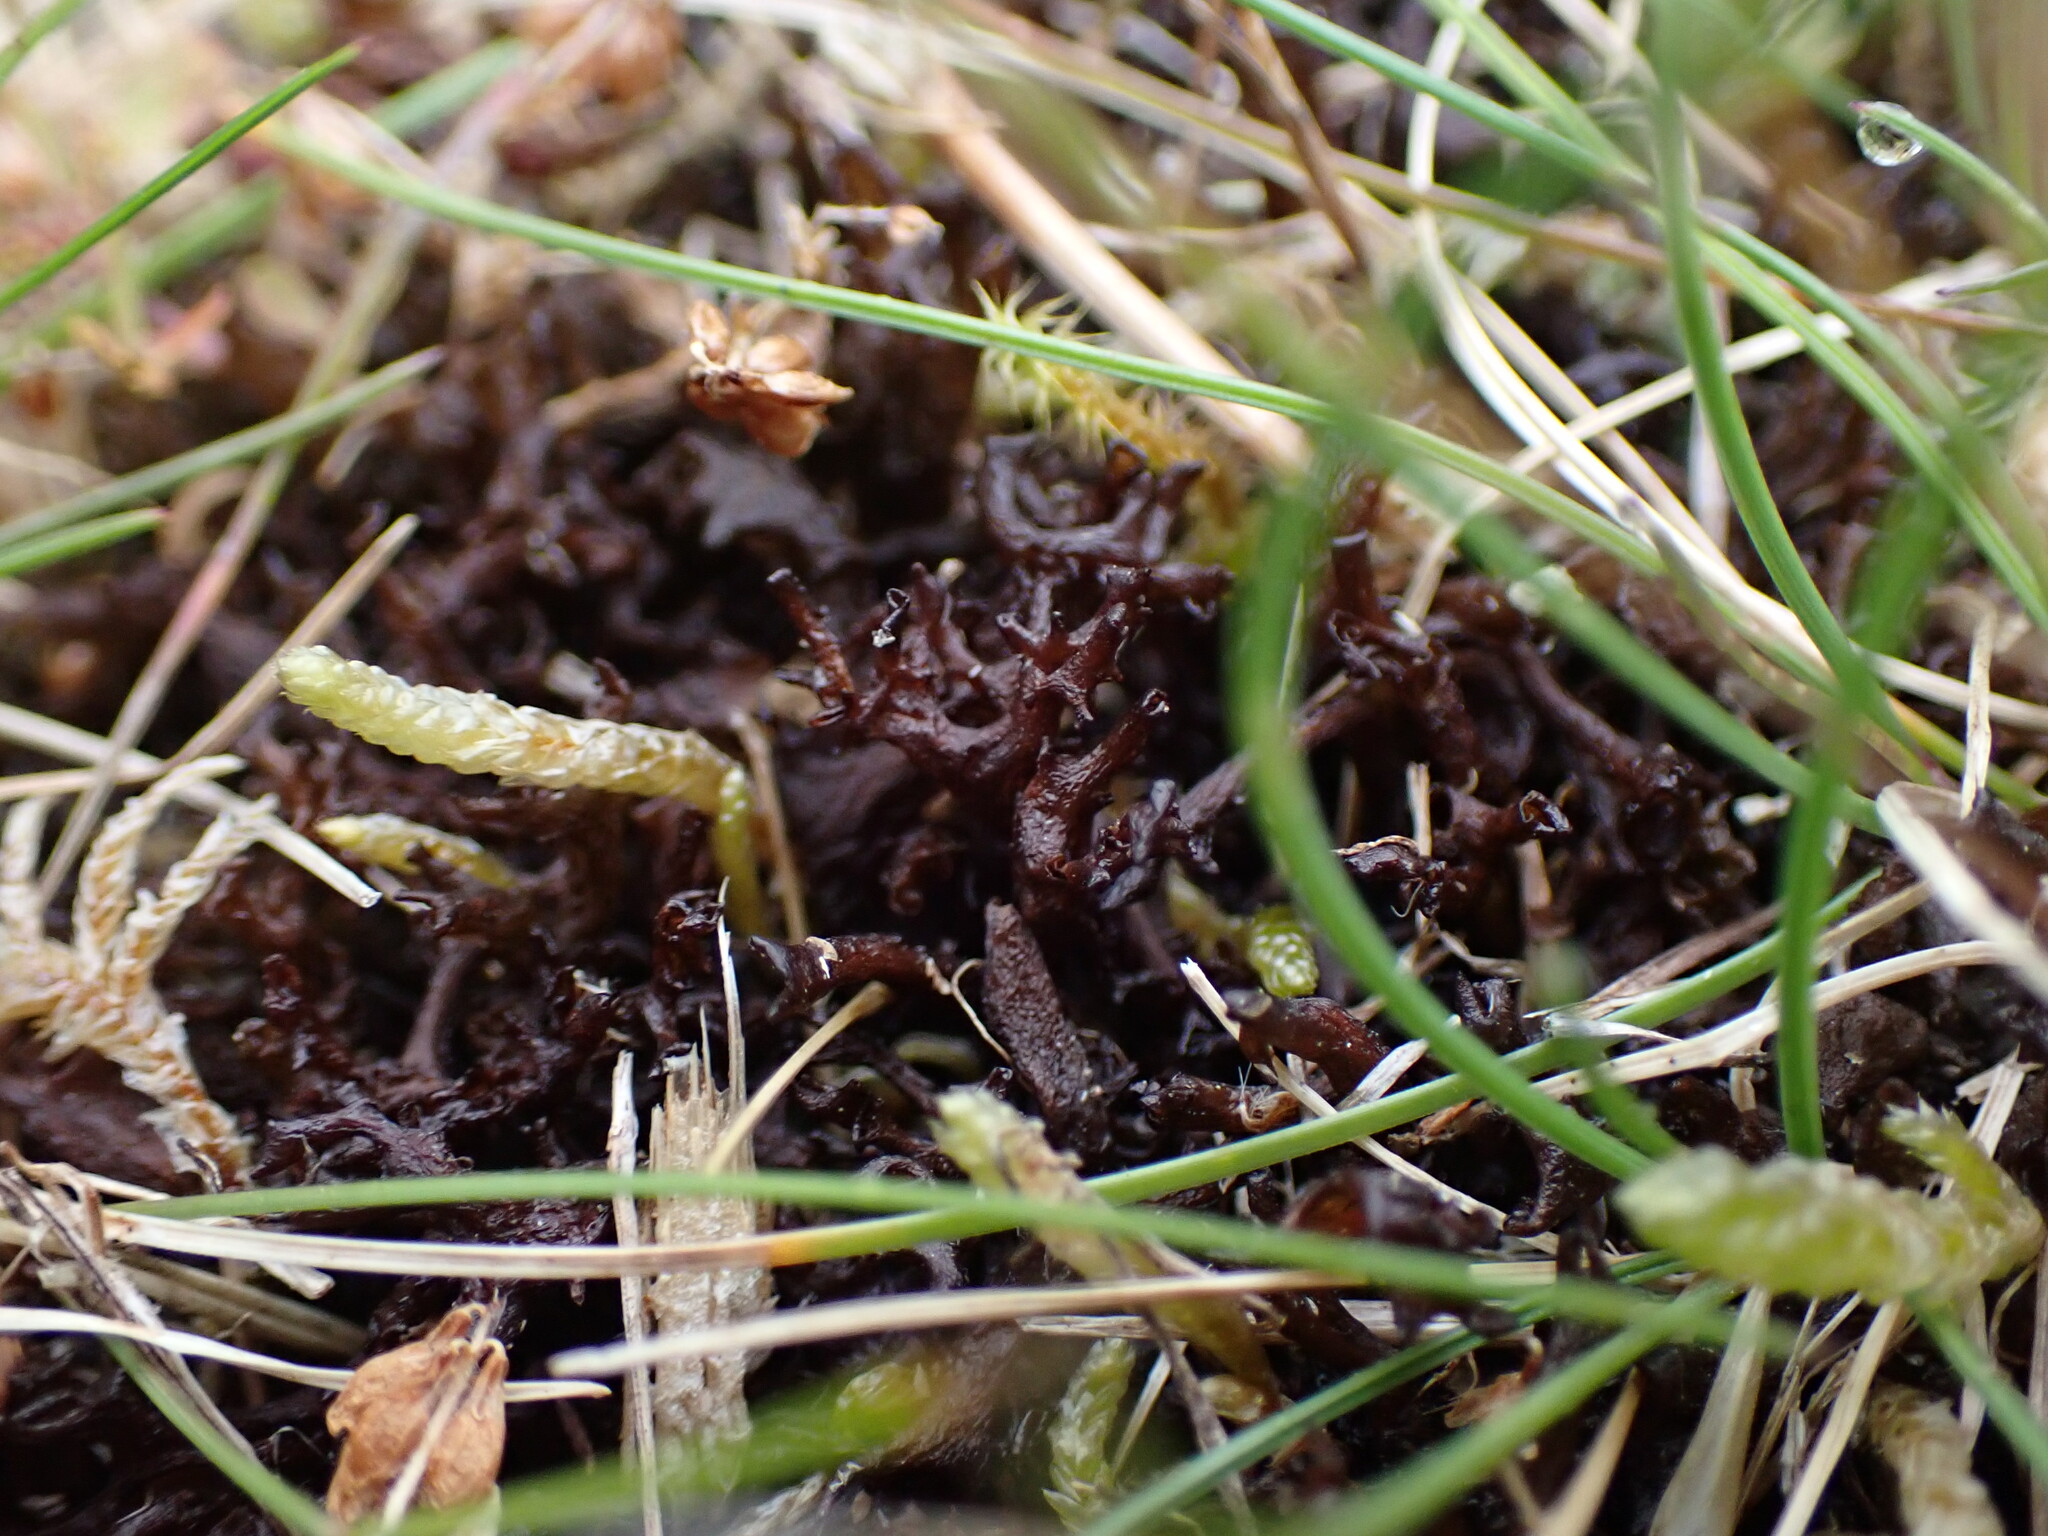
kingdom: Fungi
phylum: Ascomycota
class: Lecanoromycetes
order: Peltigerales
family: Collemataceae
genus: Scytinium
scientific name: Scytinium palmatum
